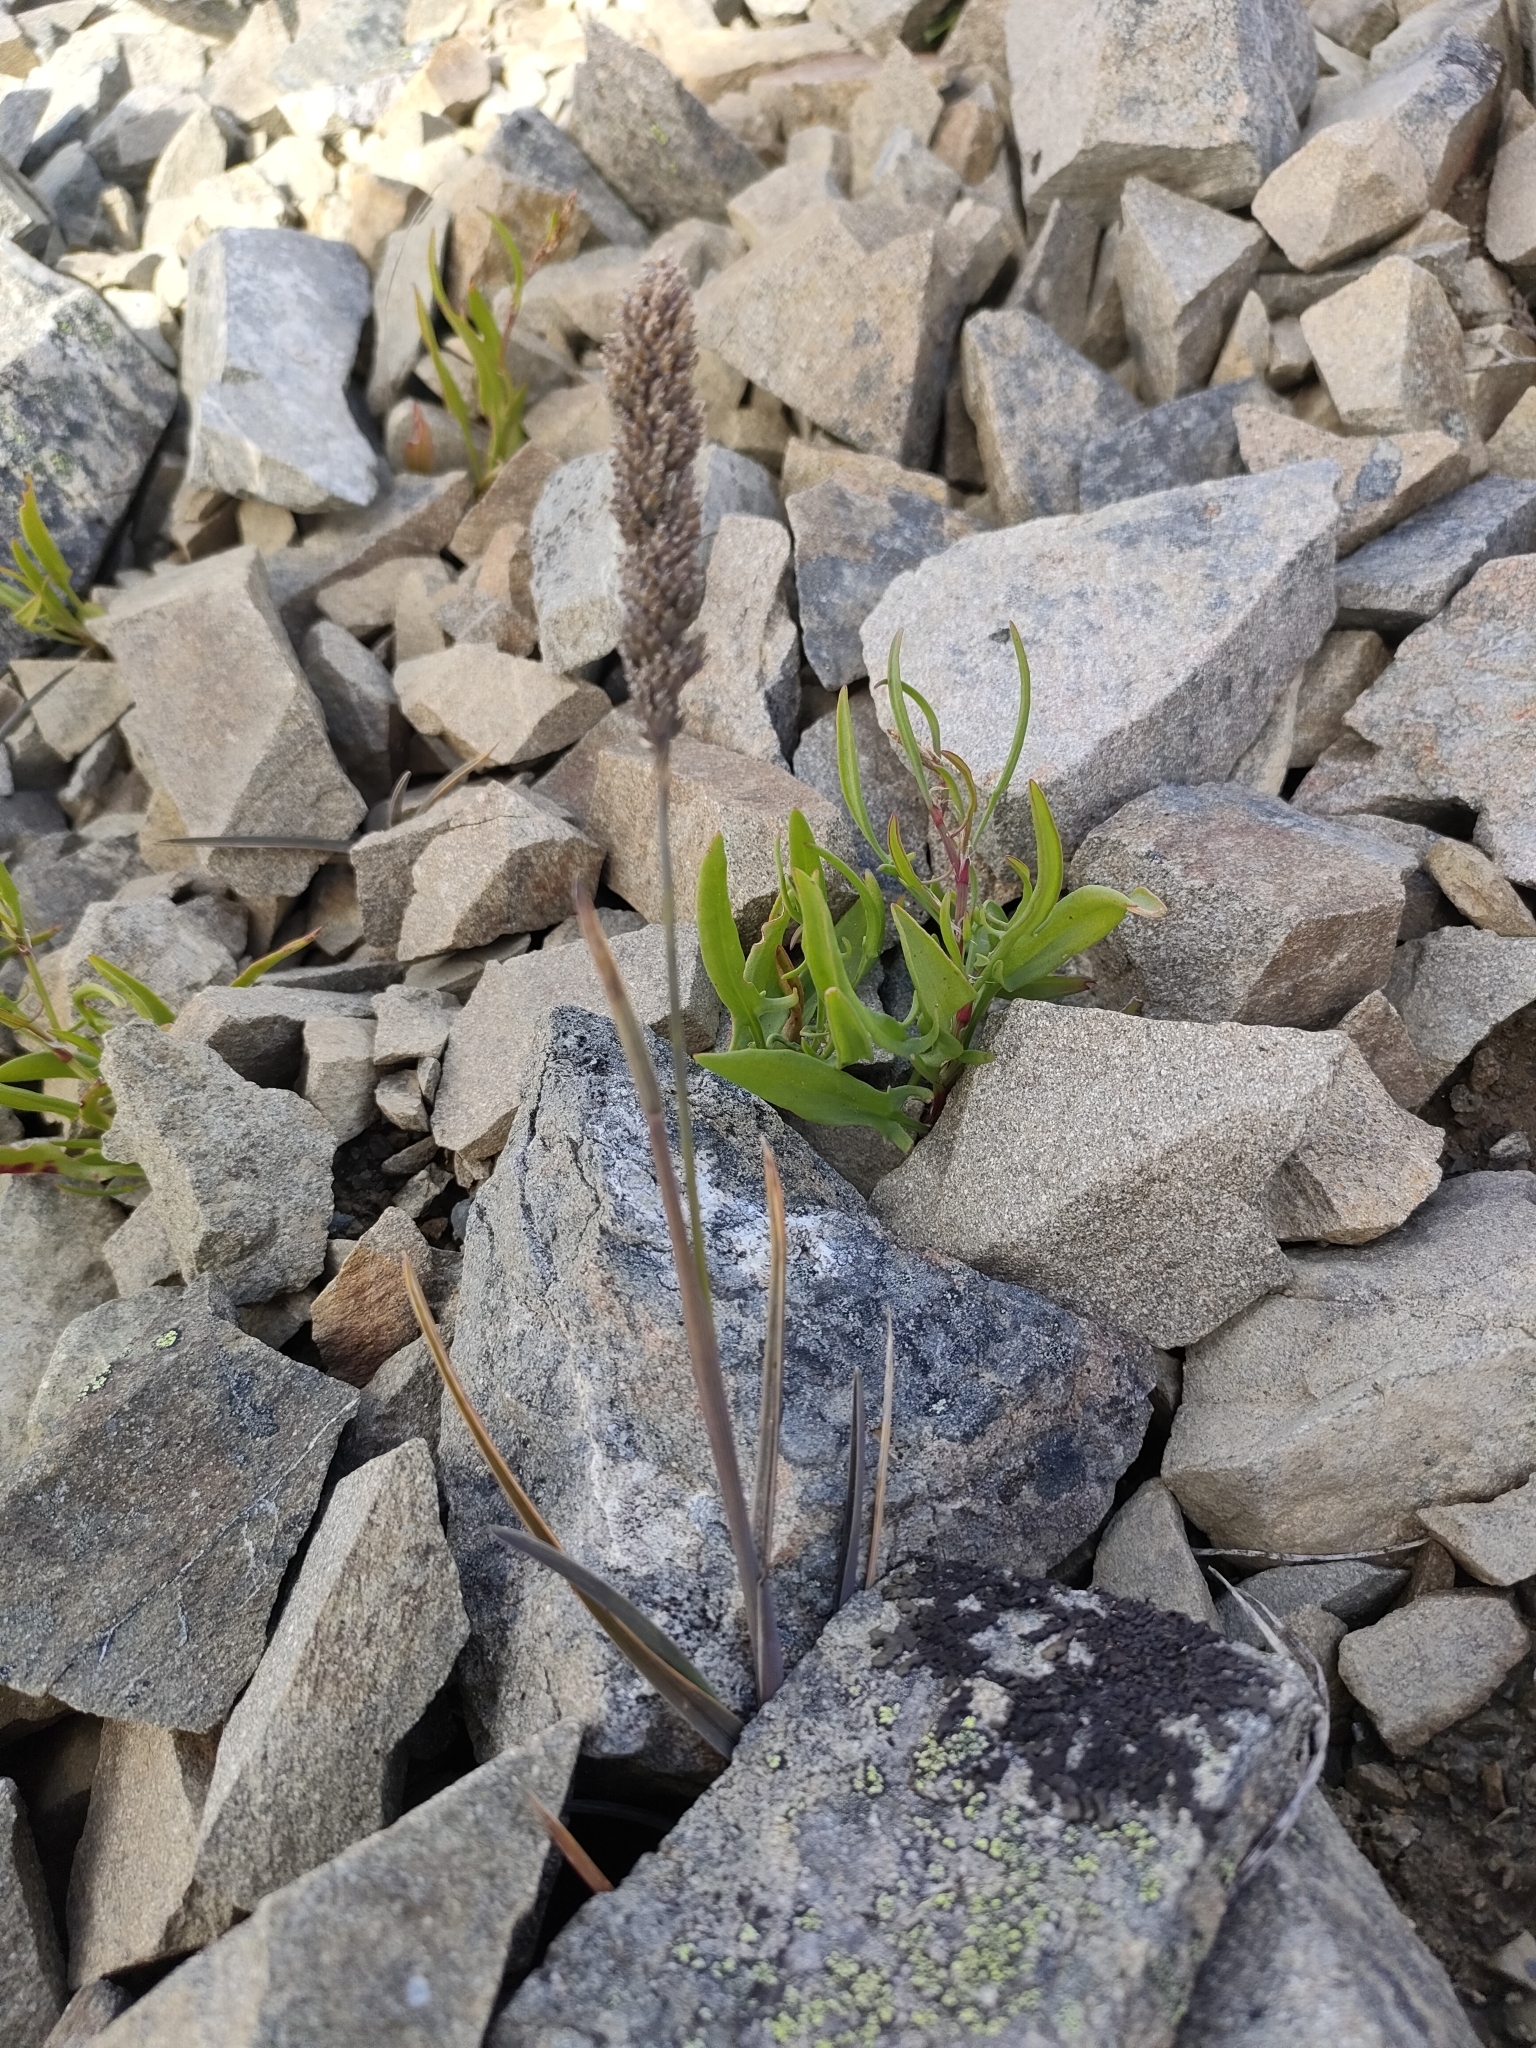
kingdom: Plantae
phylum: Tracheophyta
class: Liliopsida
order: Poales
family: Poaceae
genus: Poa
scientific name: Poa buchananii
